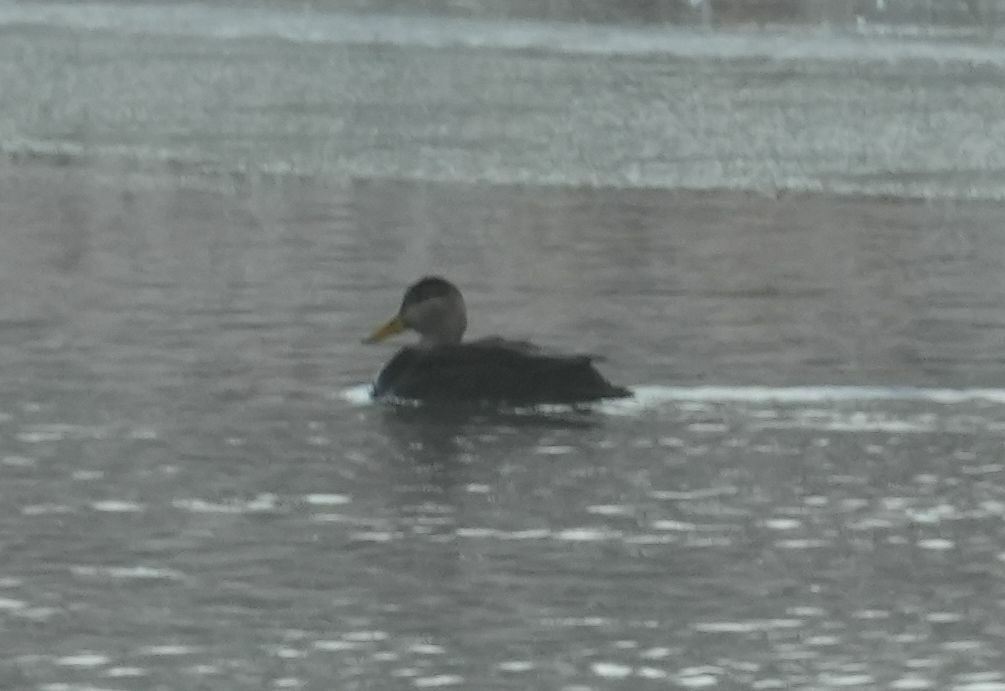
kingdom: Animalia
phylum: Chordata
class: Aves
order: Anseriformes
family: Anatidae
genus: Anas
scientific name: Anas rubripes
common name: American black duck
